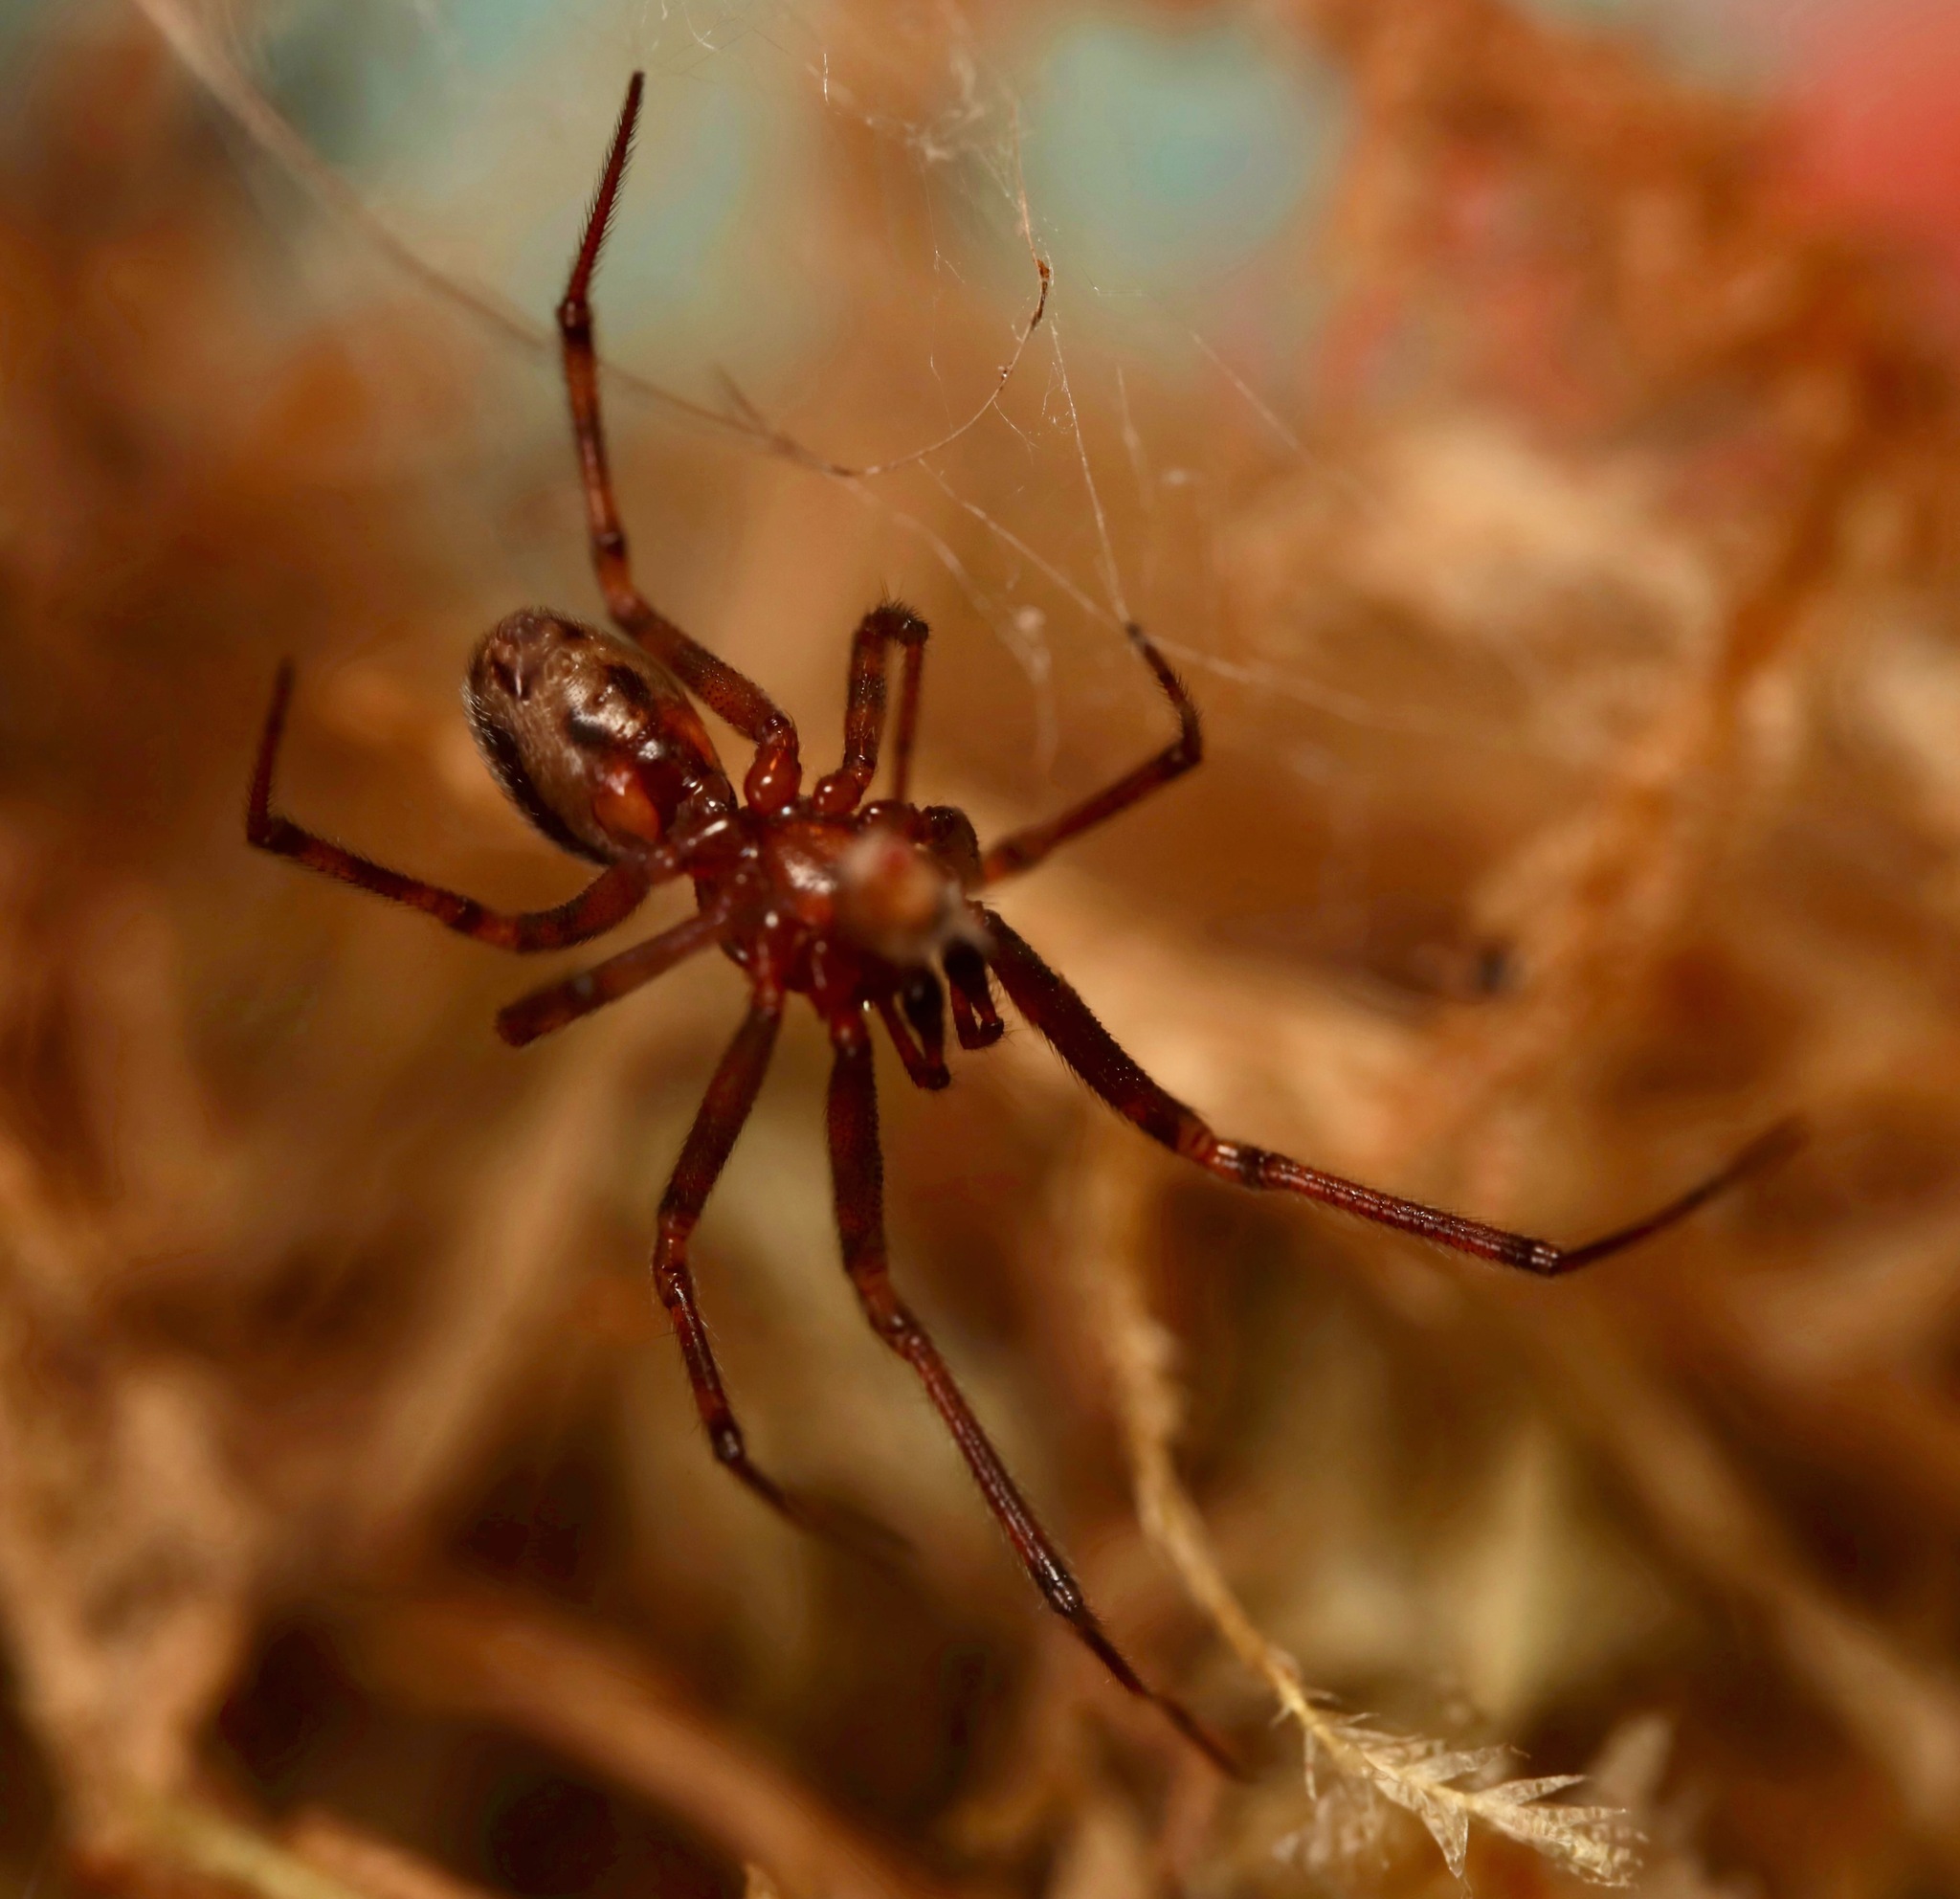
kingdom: Animalia
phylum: Arthropoda
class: Arachnida
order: Araneae
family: Theridiidae
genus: Steatoda
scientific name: Steatoda borealis
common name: Boreal combfoot
